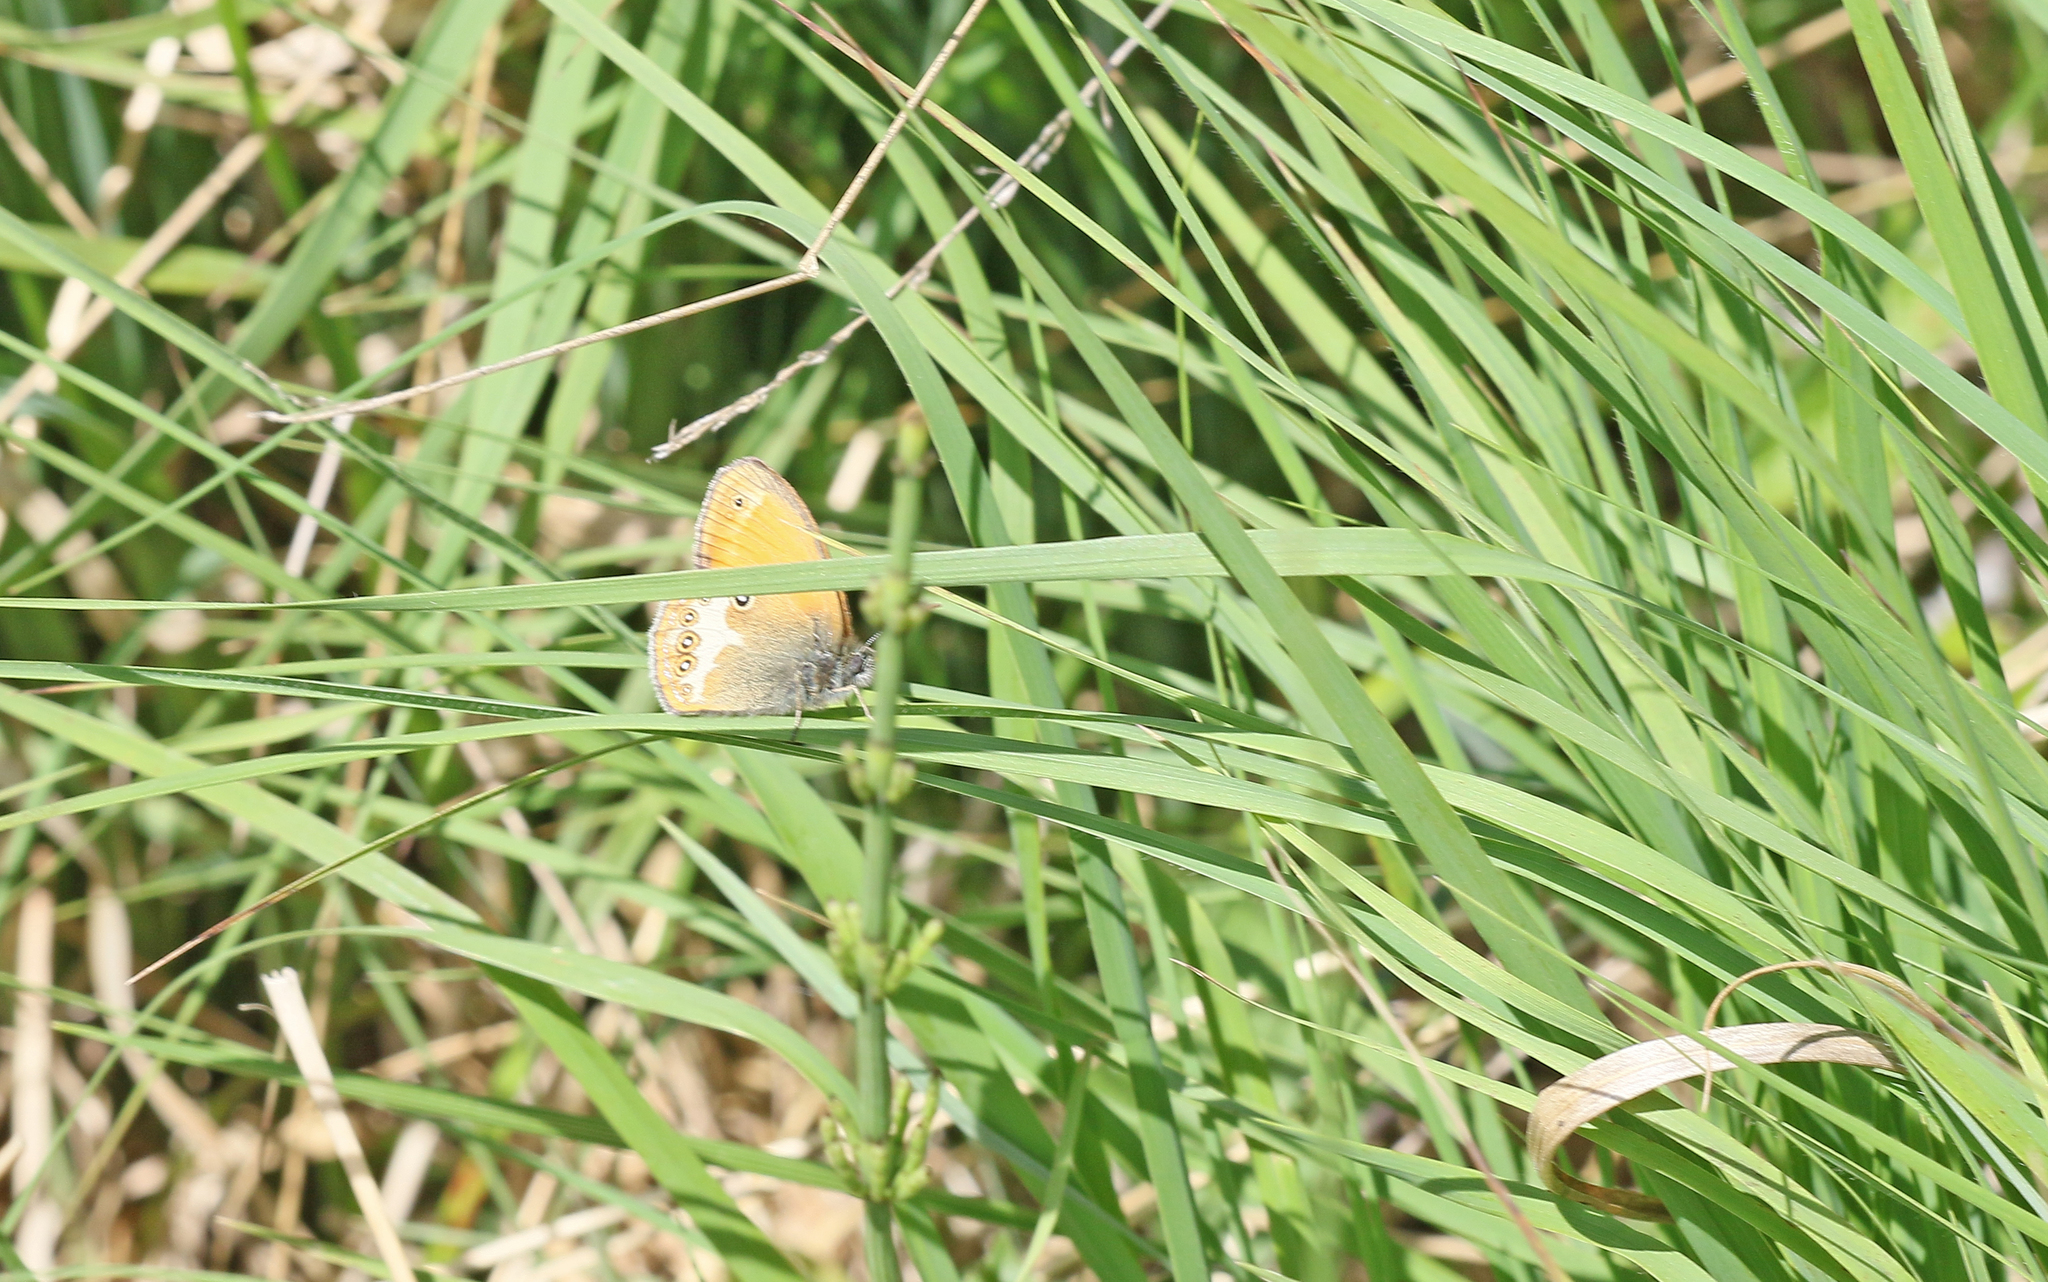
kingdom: Animalia
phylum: Arthropoda
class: Insecta
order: Lepidoptera
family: Nymphalidae
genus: Coenonympha
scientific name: Coenonympha arcania
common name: Pearly heath
